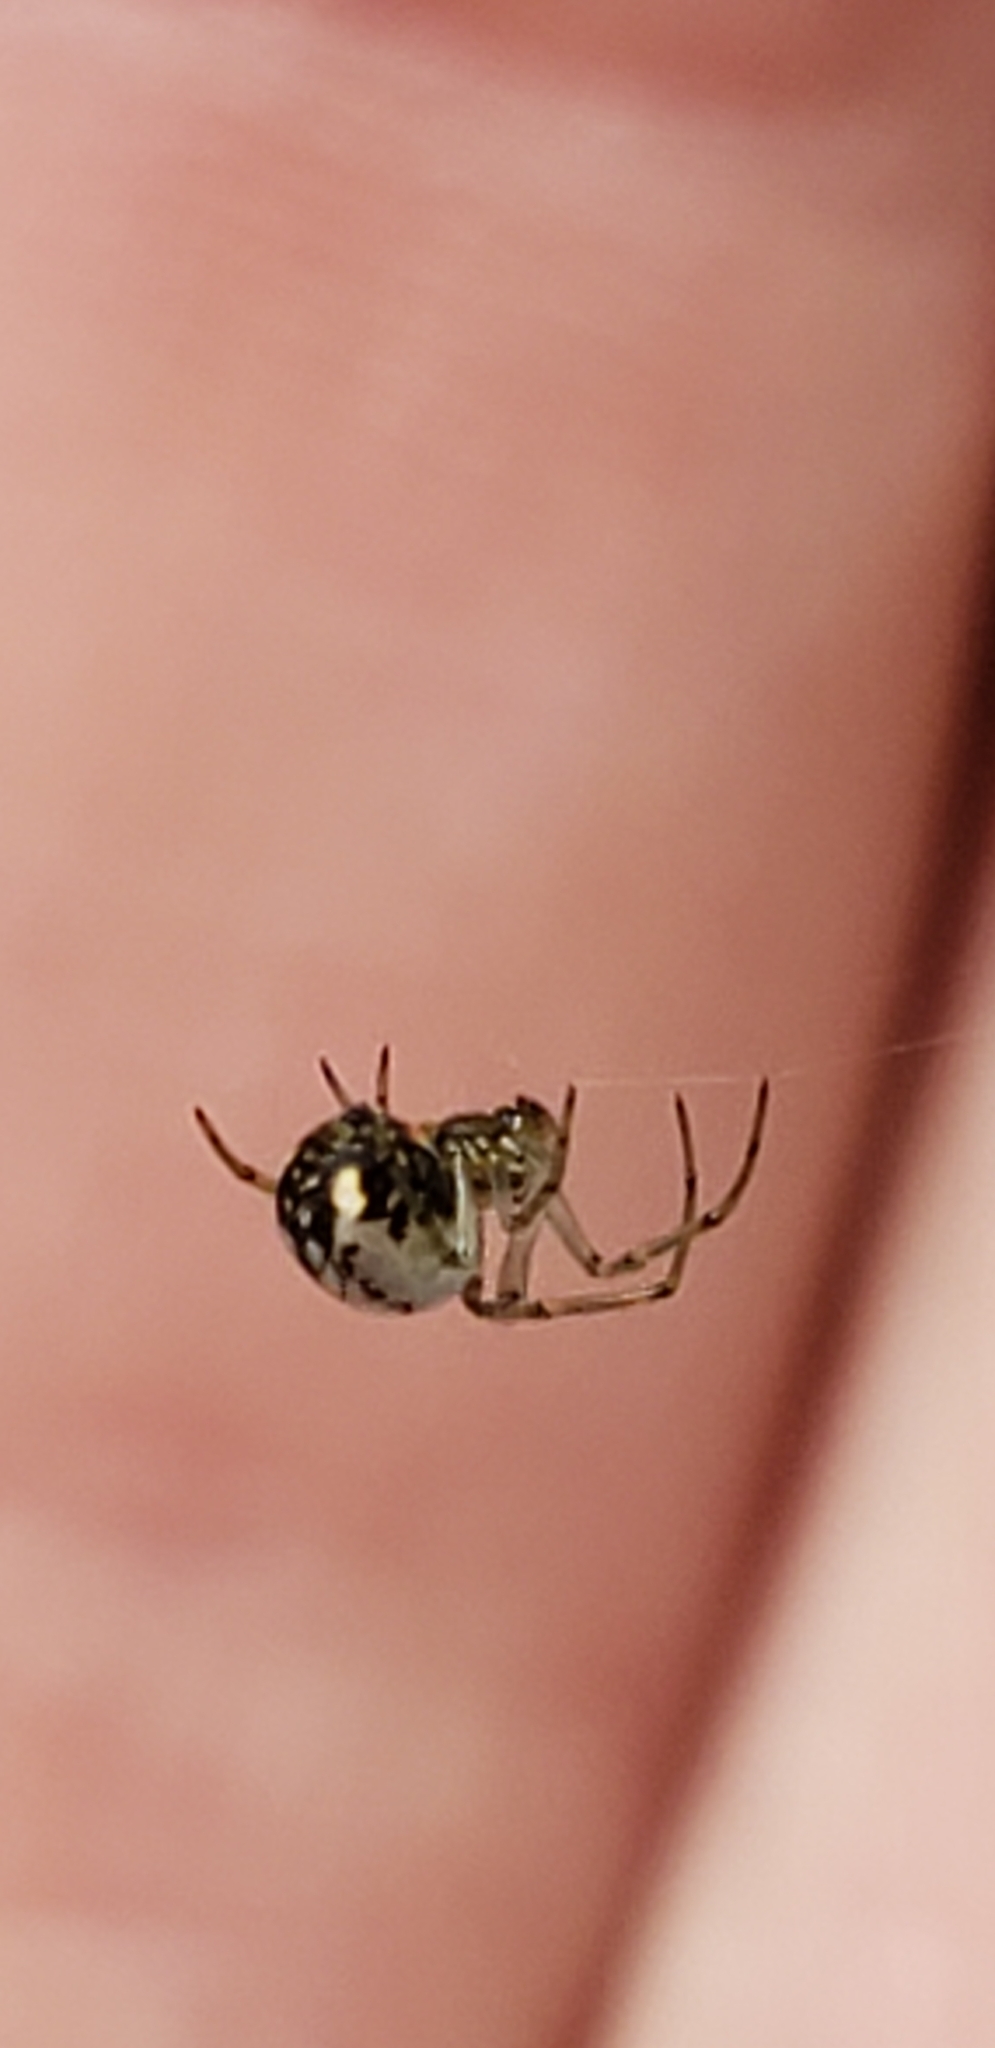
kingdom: Animalia
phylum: Arthropoda
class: Arachnida
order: Araneae
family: Tetragnathidae
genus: Leucauge
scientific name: Leucauge venusta
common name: Longjawed orb weavers
